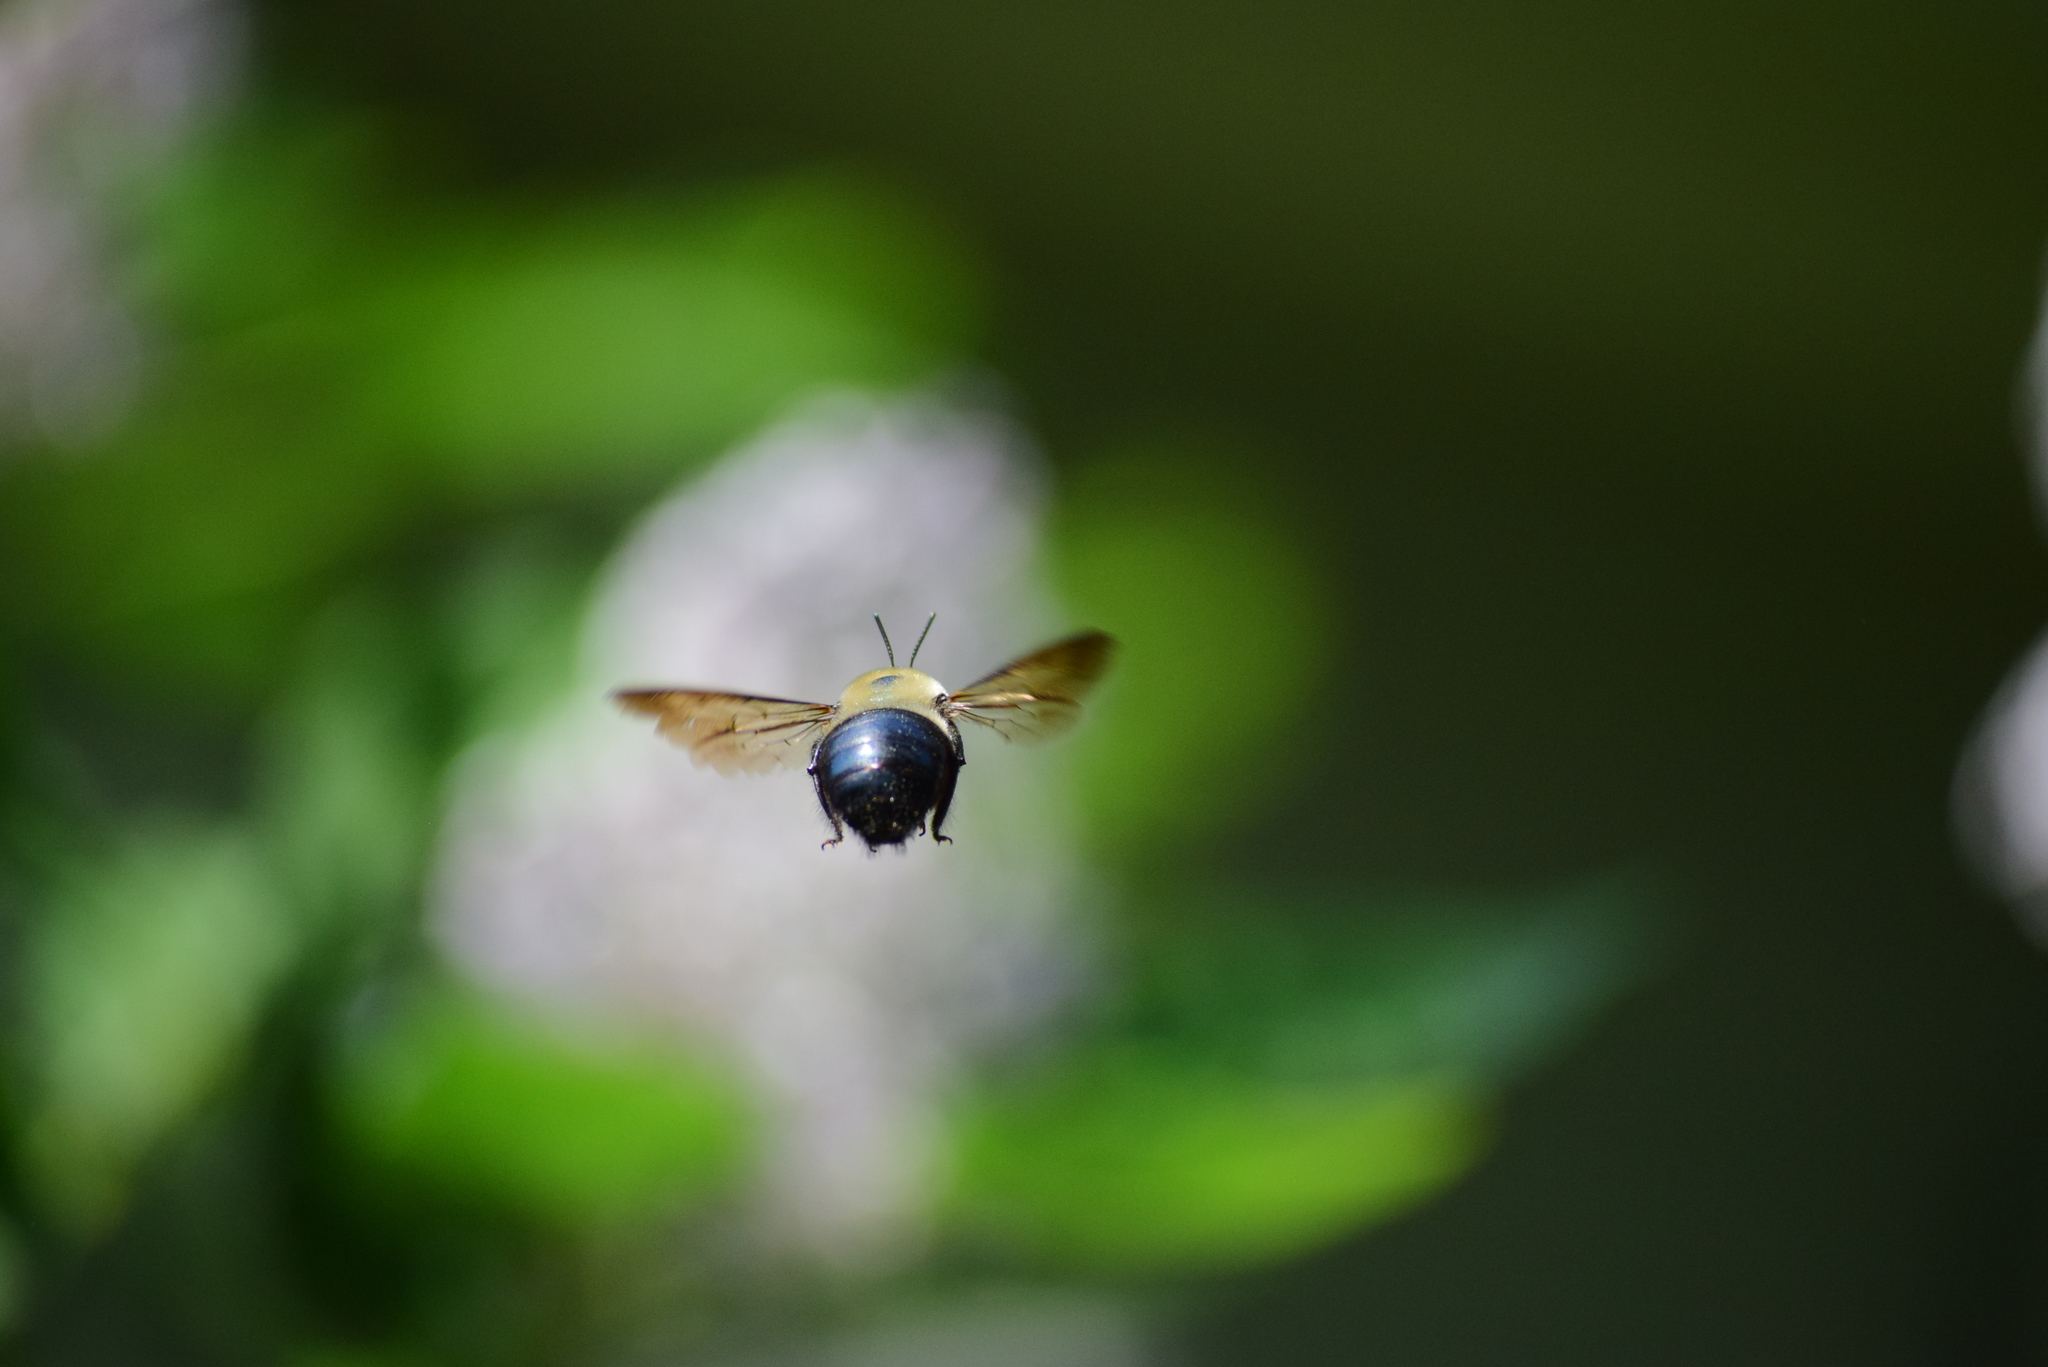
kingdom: Animalia
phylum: Arthropoda
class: Insecta
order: Hymenoptera
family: Apidae
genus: Xylocopa
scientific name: Xylocopa virginica
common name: Carpenter bee
